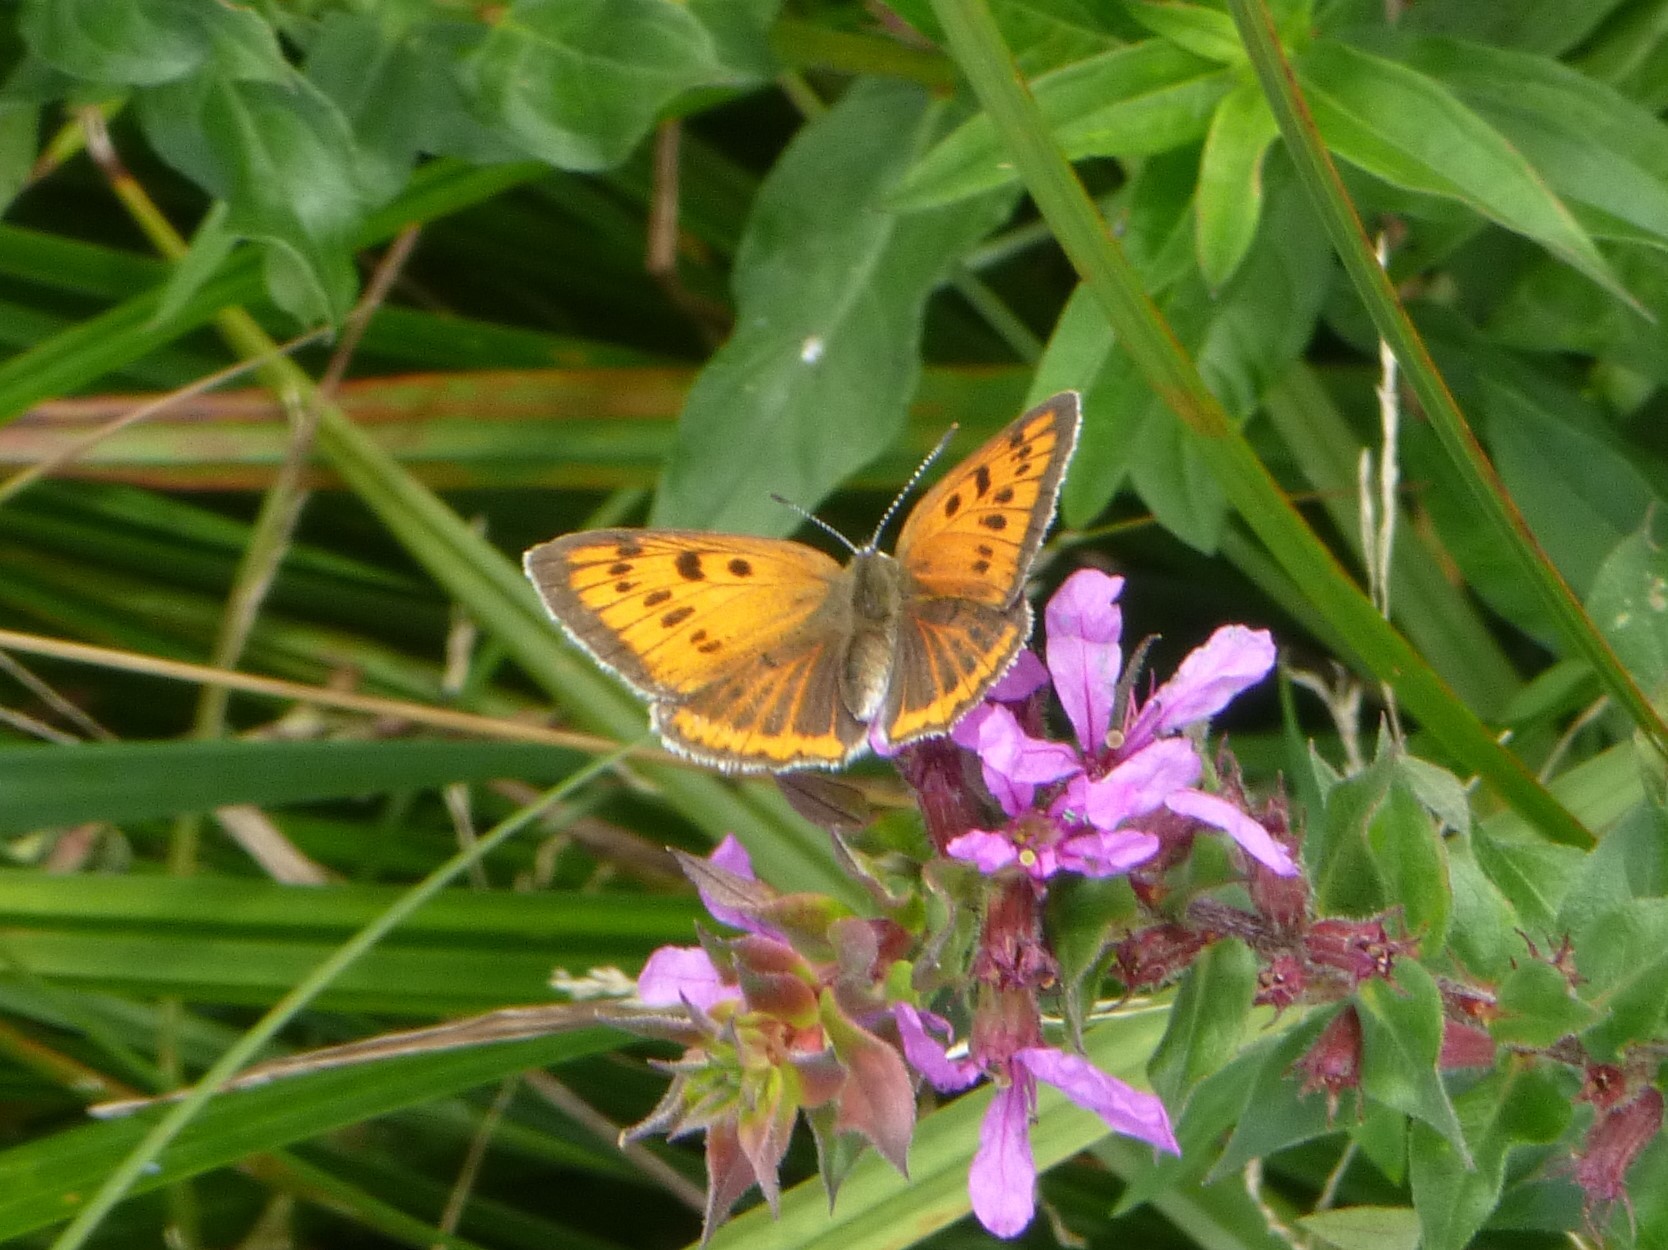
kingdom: Animalia
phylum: Arthropoda
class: Insecta
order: Lepidoptera
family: Lycaenidae
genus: Lycaena
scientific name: Lycaena dispar
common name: Large copper
